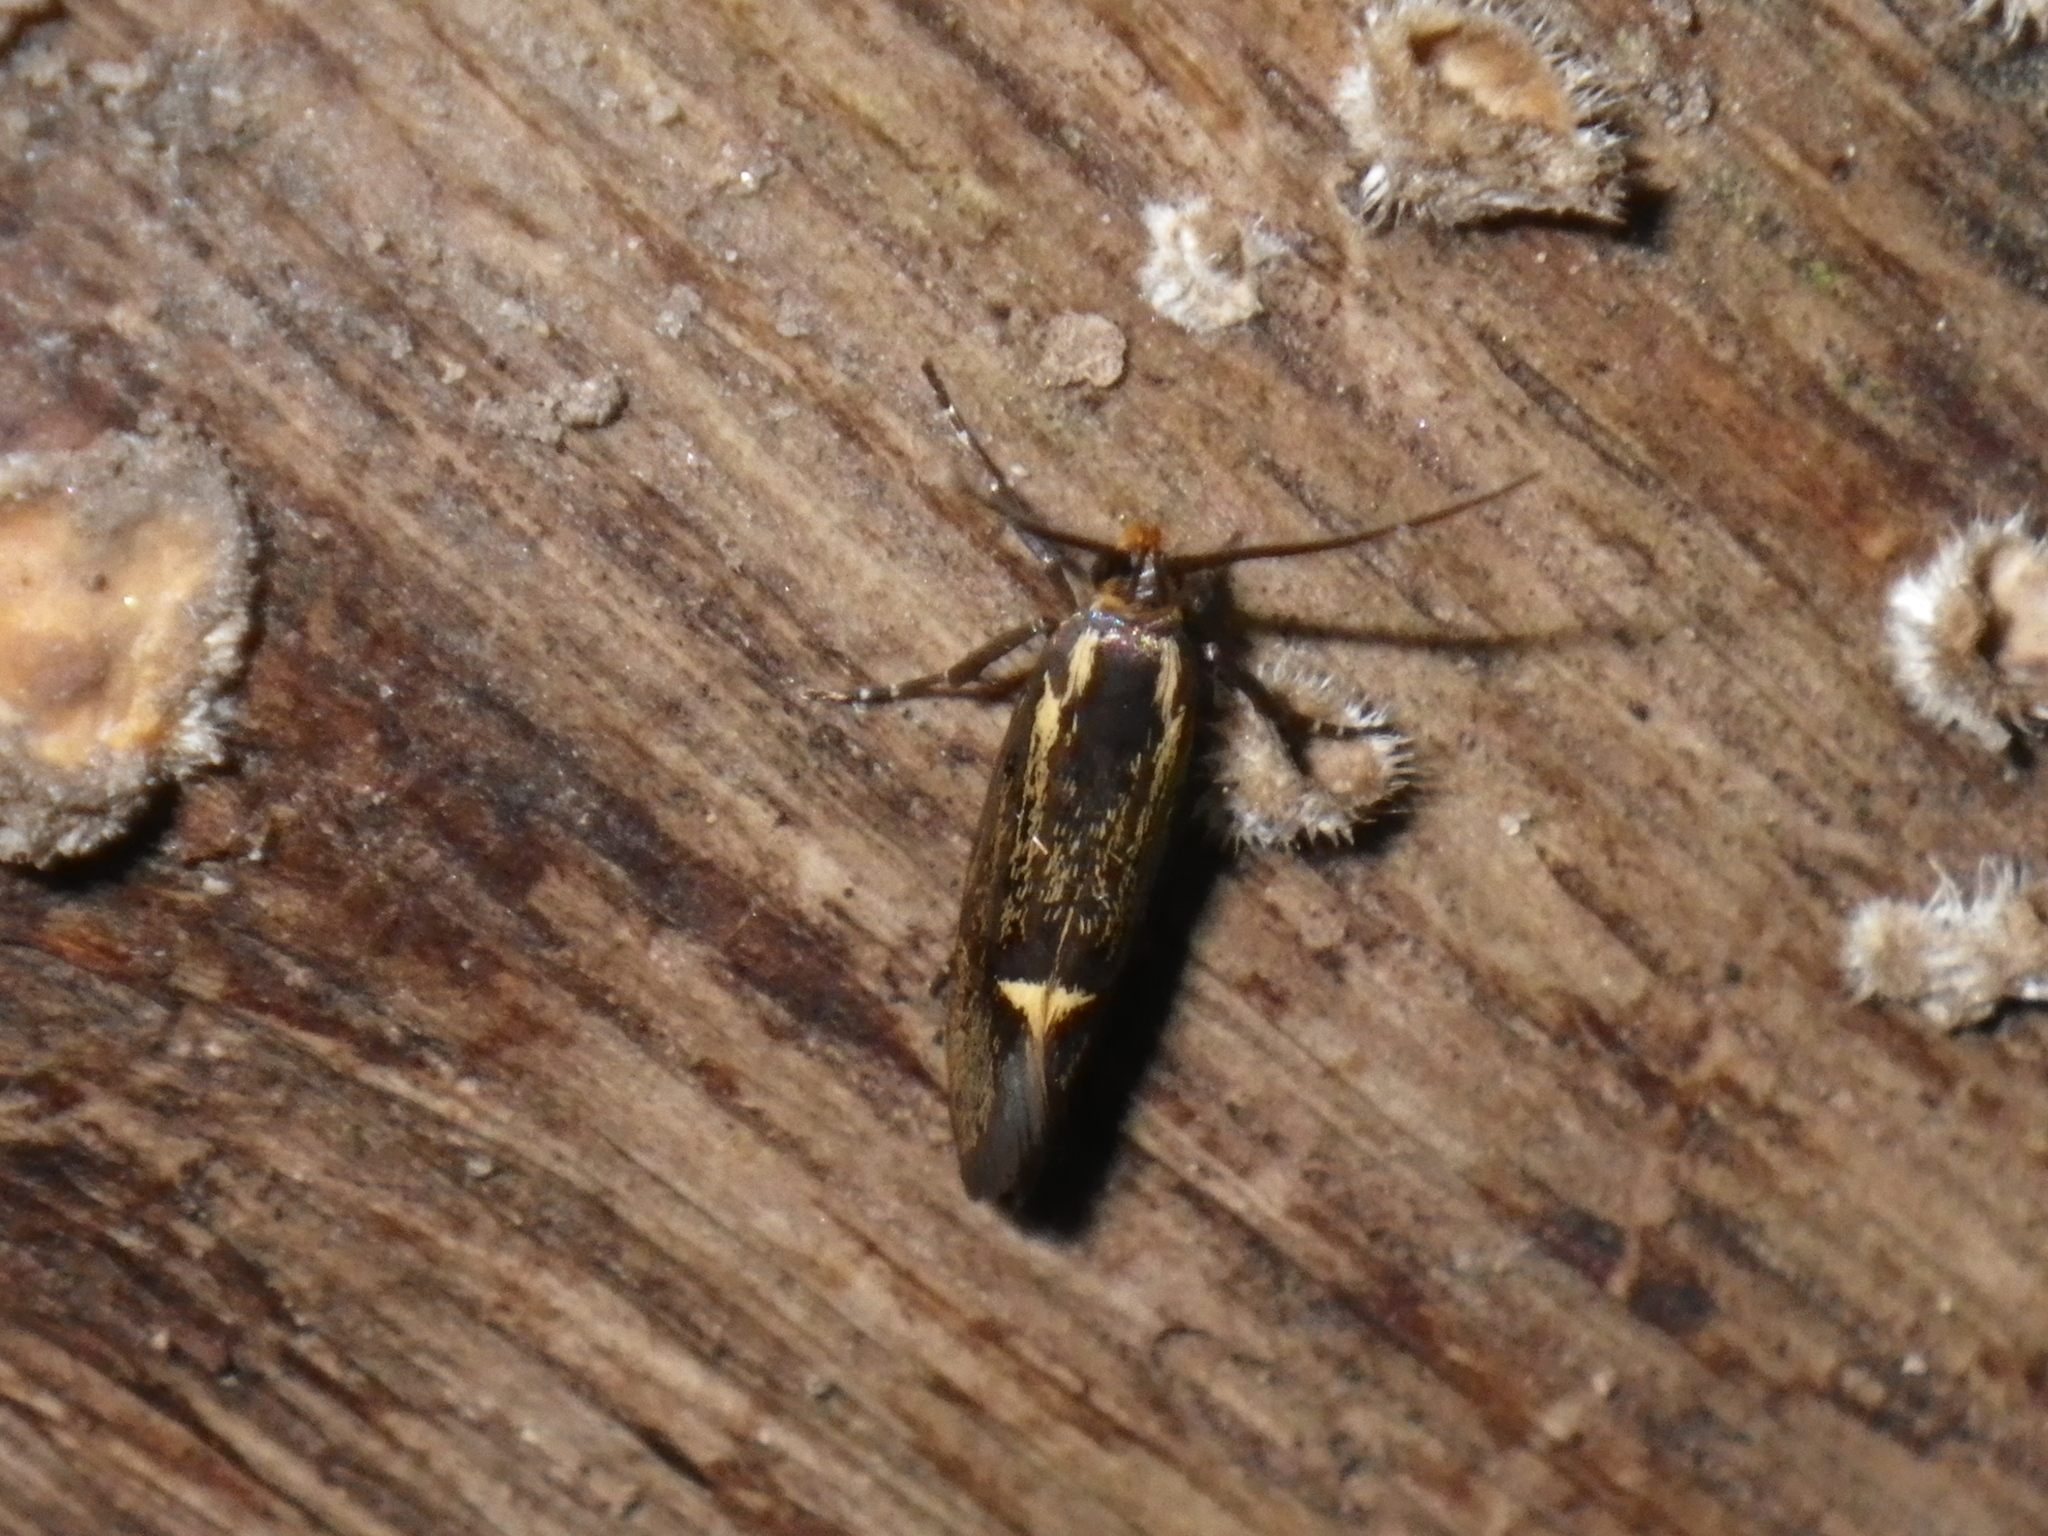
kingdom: Animalia
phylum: Arthropoda
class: Insecta
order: Lepidoptera
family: Oecophoridae
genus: Dafa
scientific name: Dafa Esperia sulphurella
